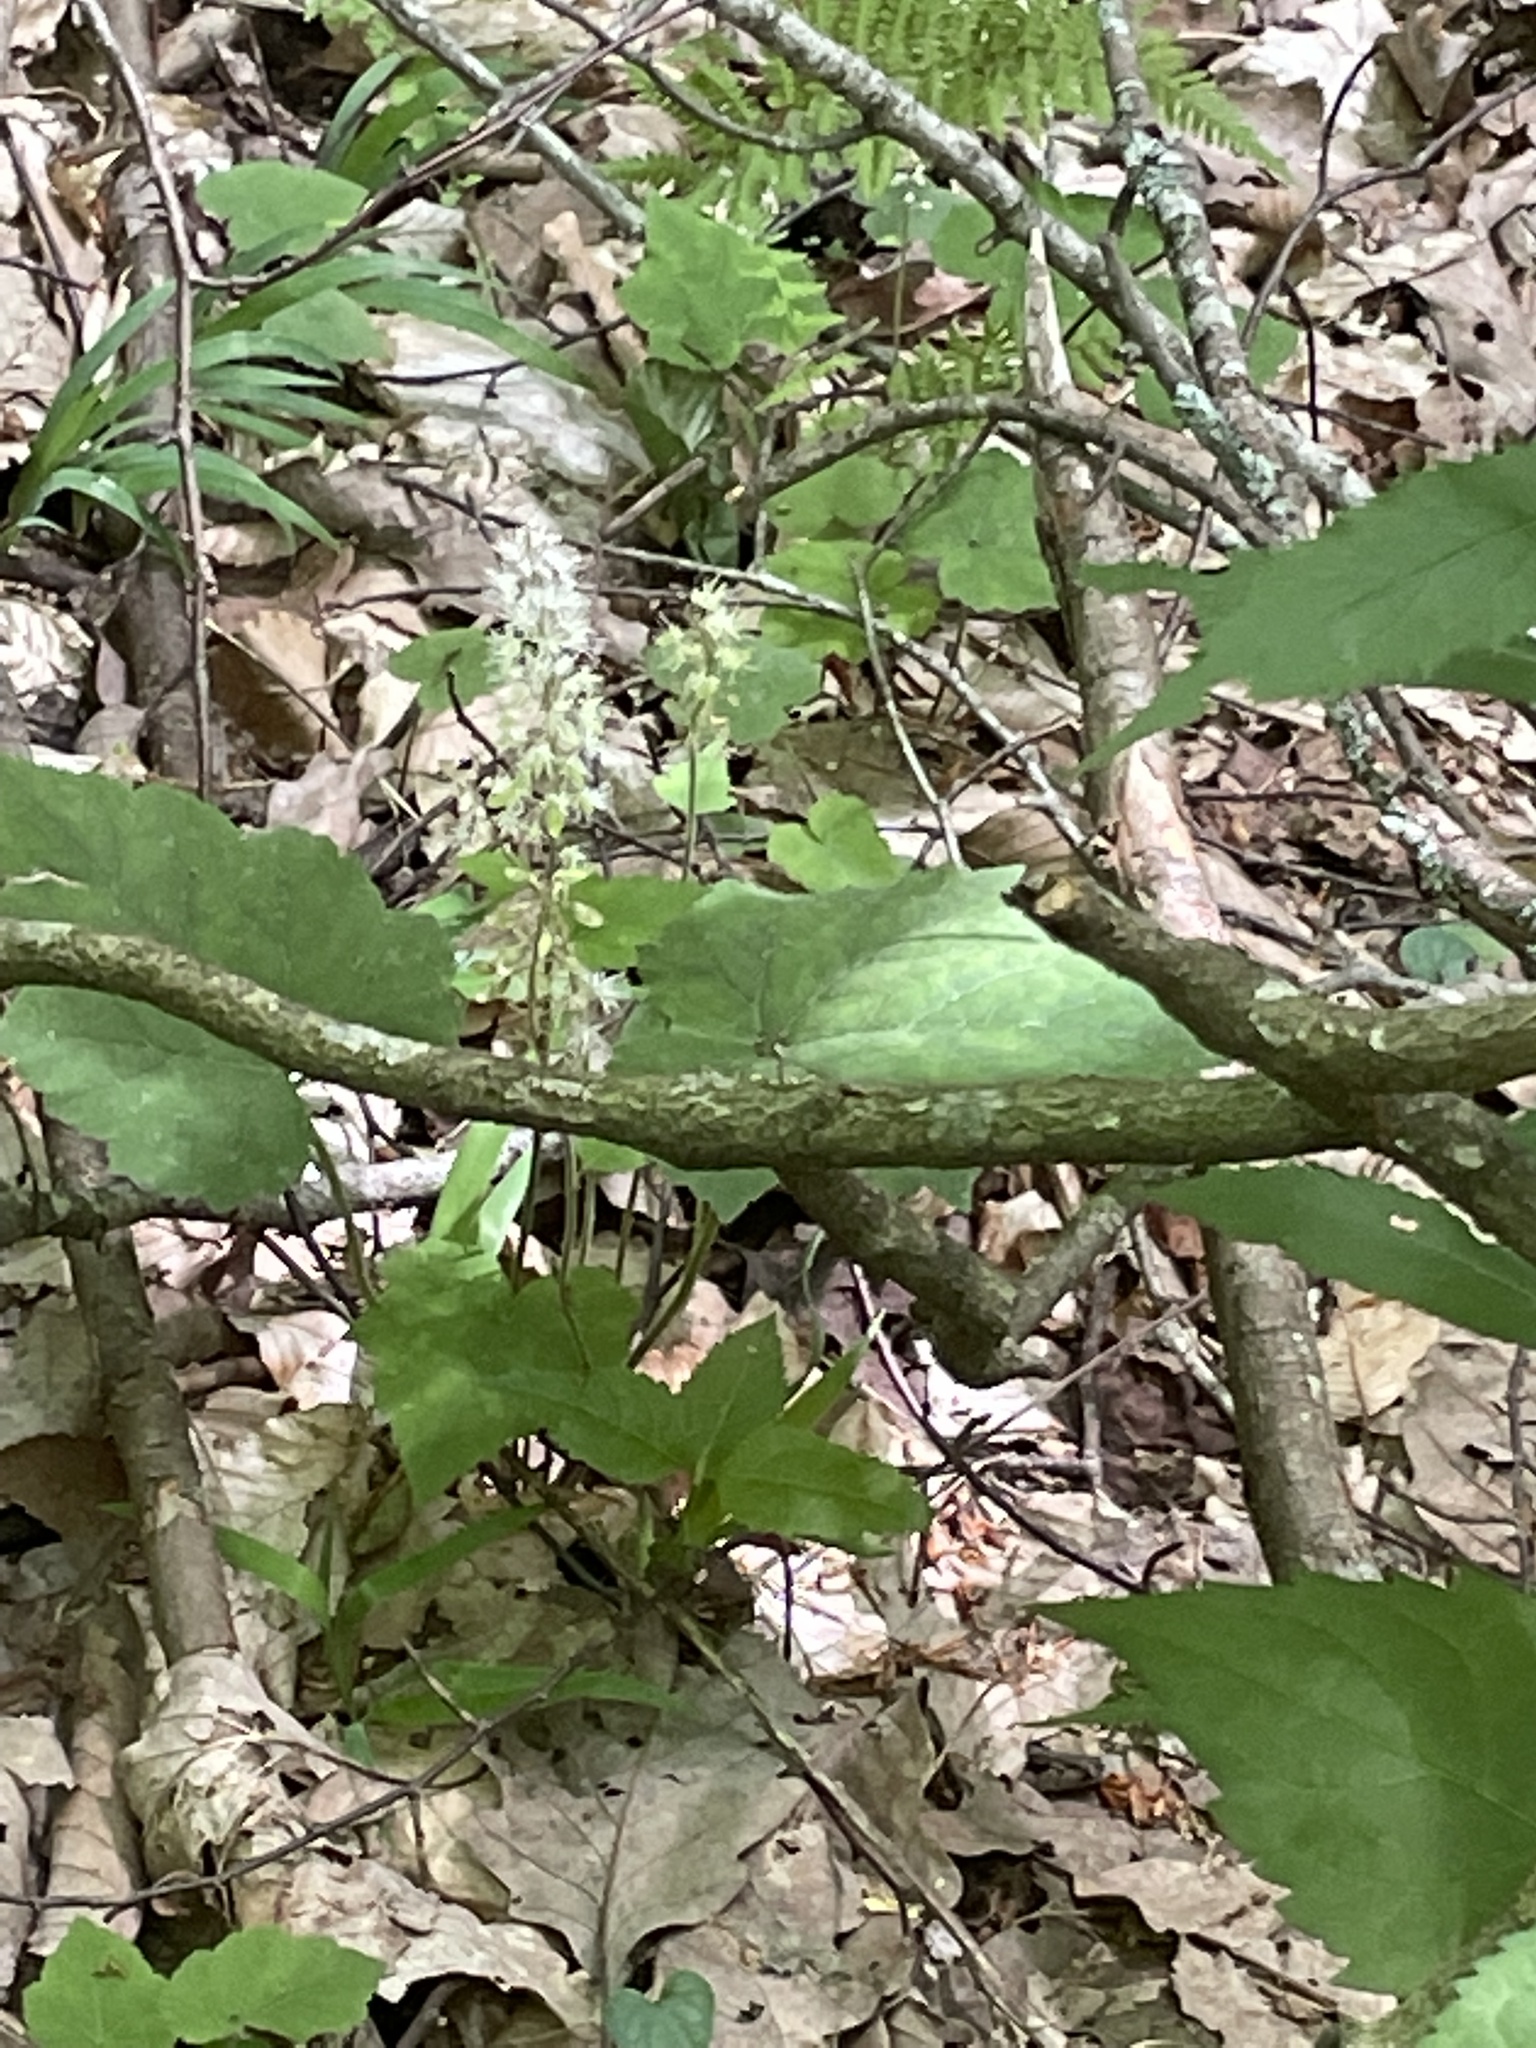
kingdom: Plantae
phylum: Tracheophyta
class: Magnoliopsida
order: Saxifragales
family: Saxifragaceae
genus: Tiarella
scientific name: Tiarella nautila
